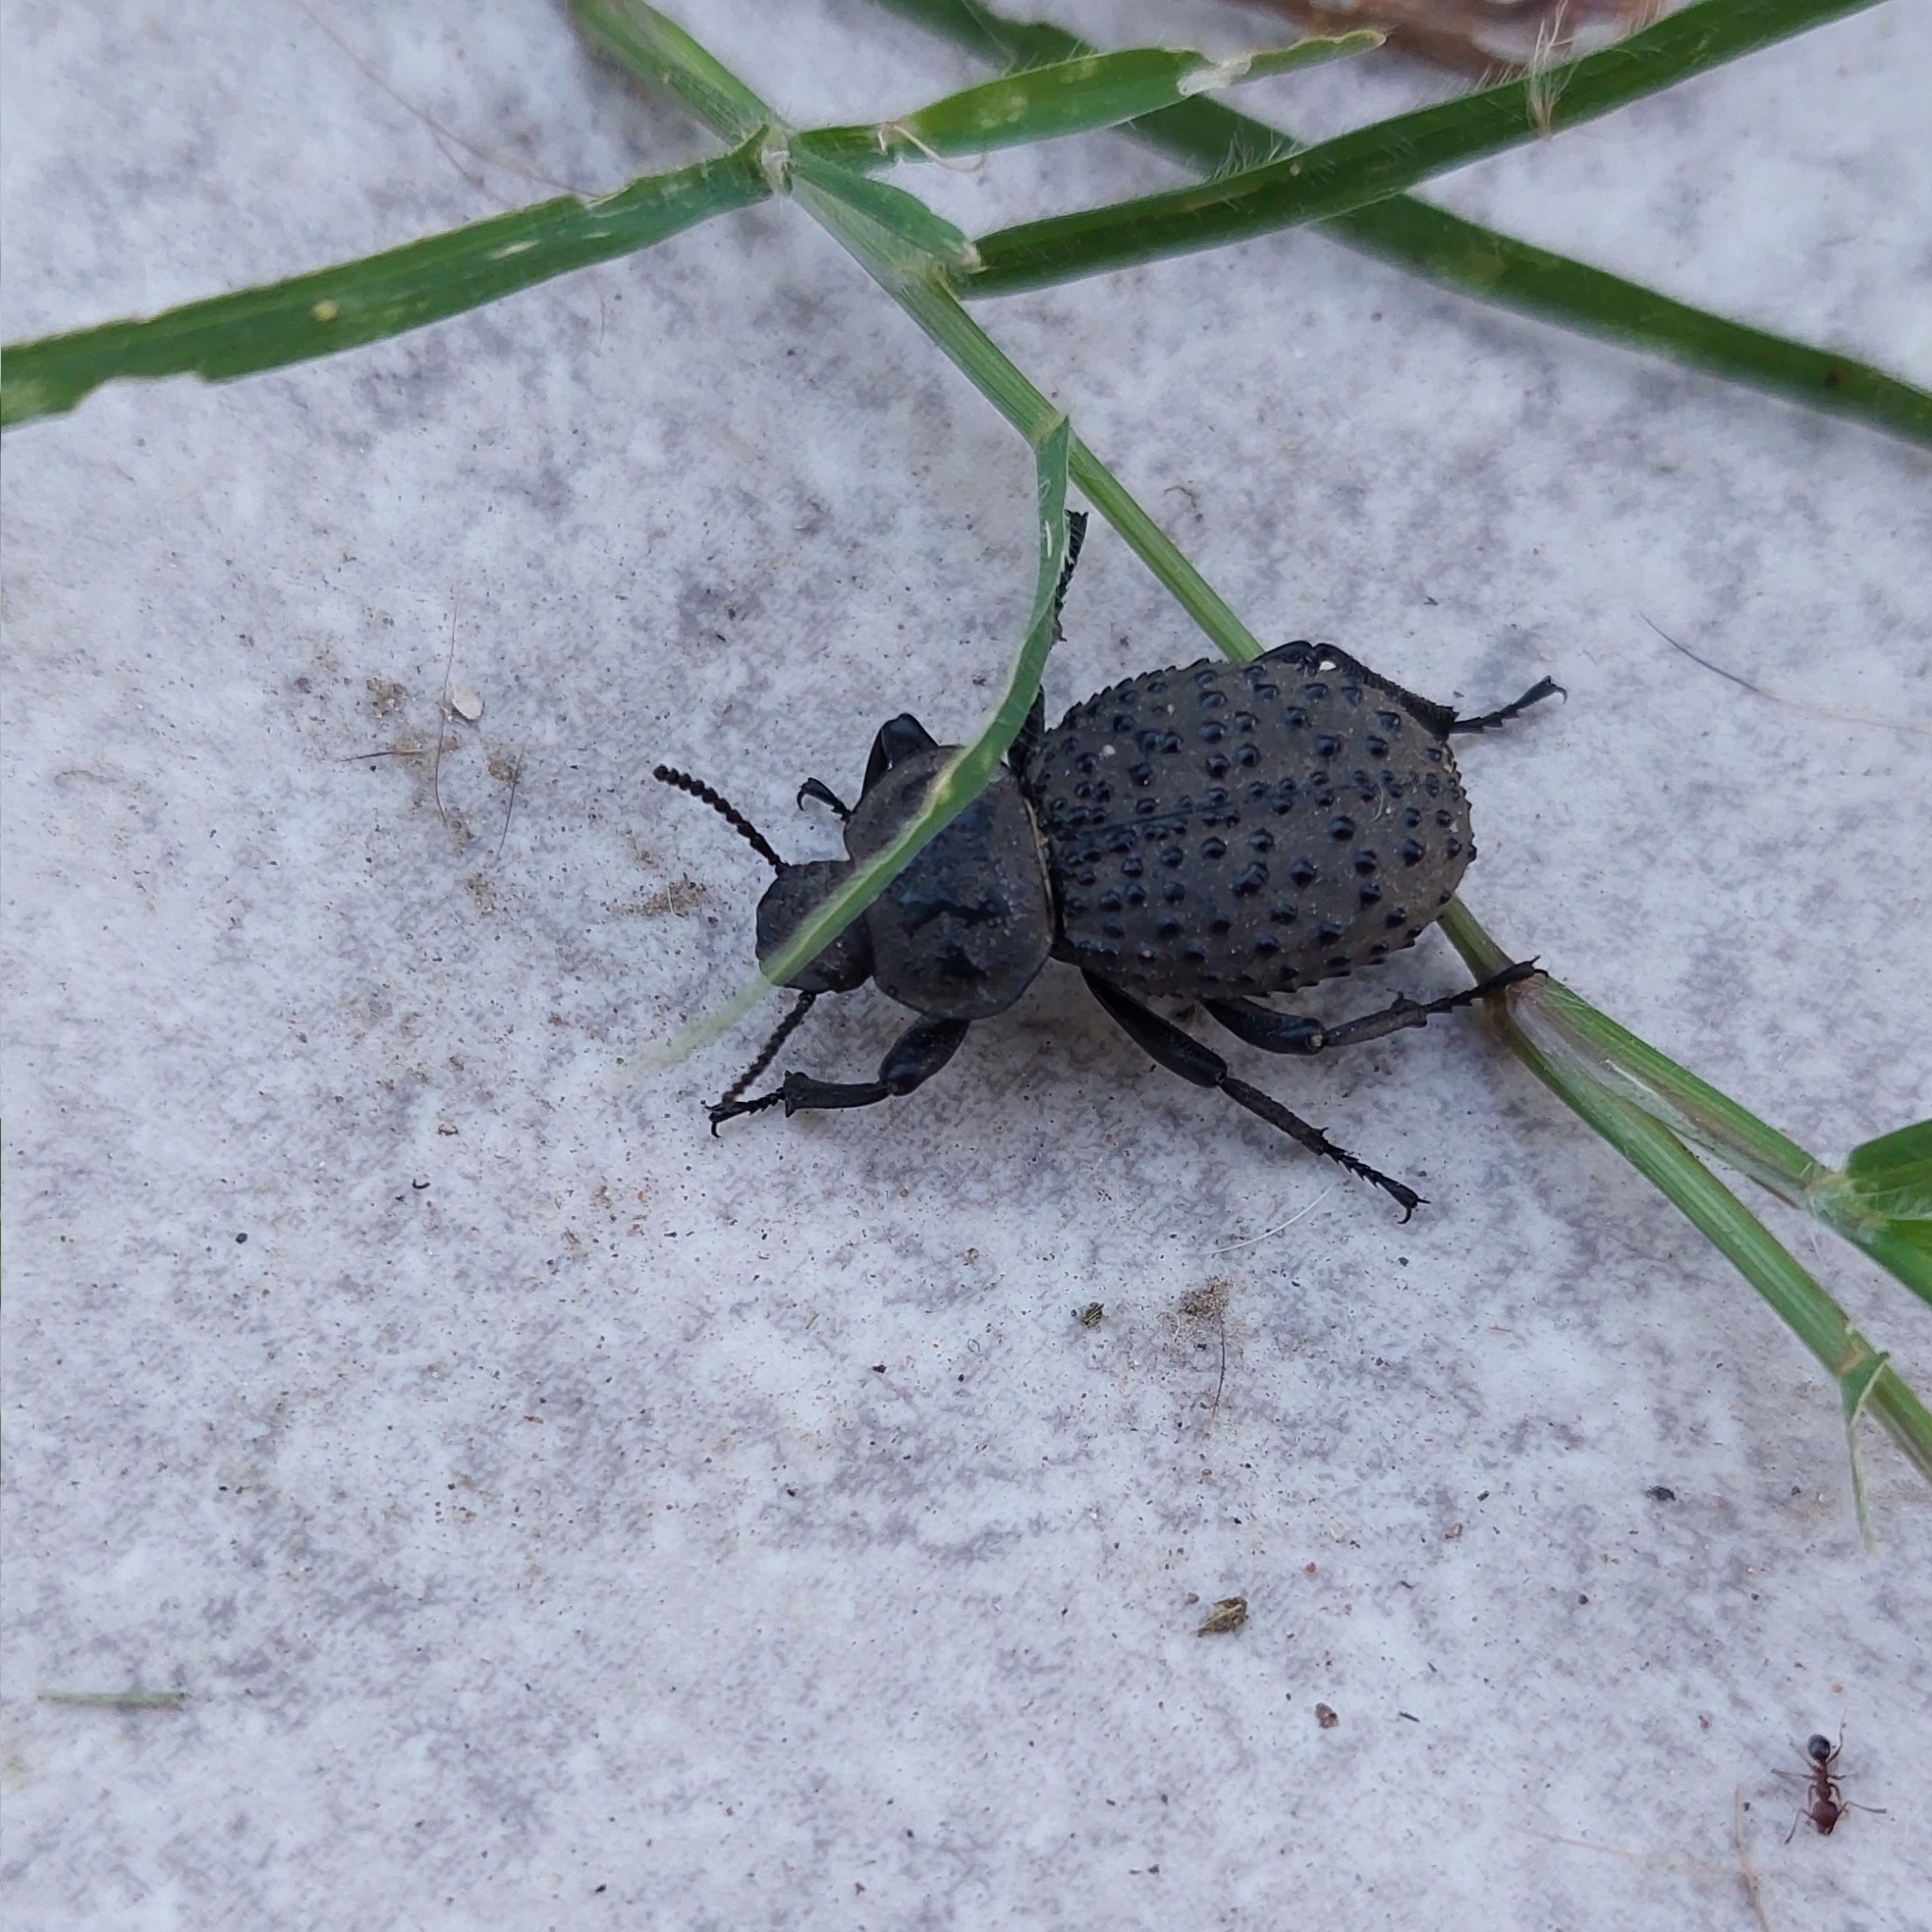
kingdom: Animalia
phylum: Arthropoda
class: Insecta
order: Coleoptera
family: Tenebrionidae
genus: Scotobius
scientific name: Scotobius pilularius
